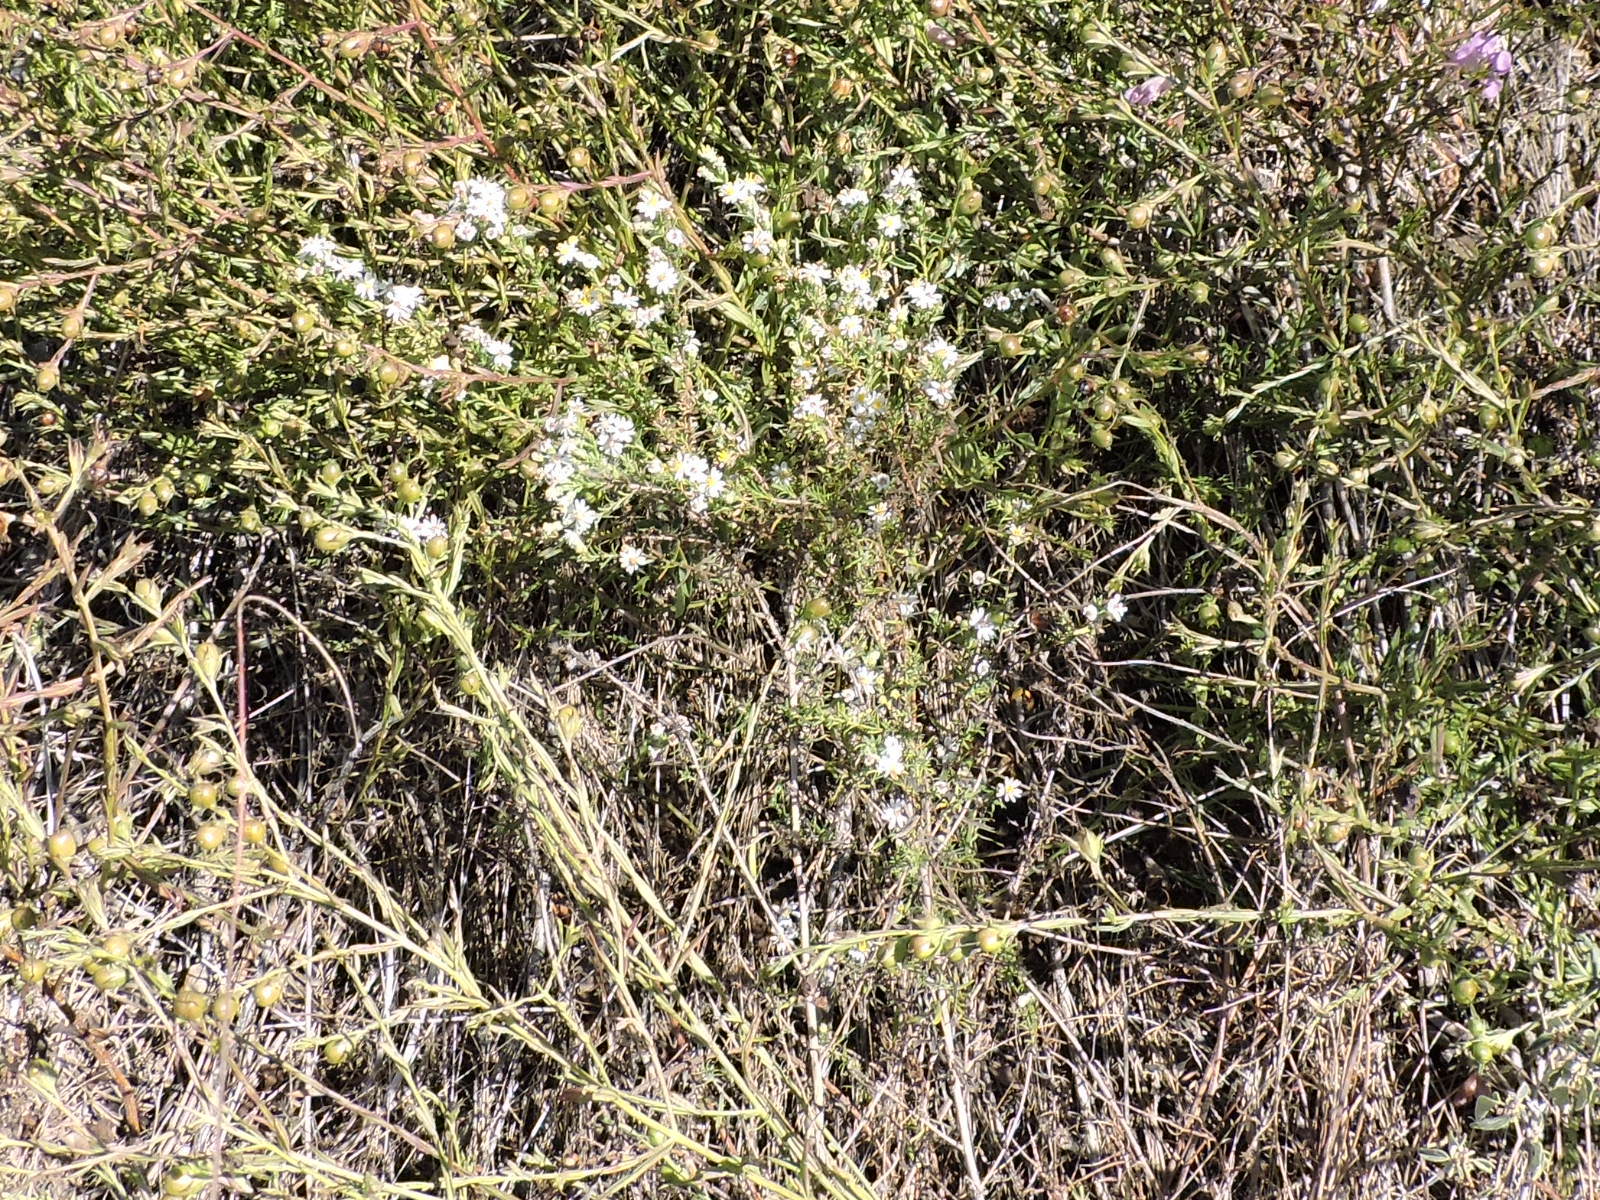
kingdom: Plantae
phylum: Tracheophyta
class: Magnoliopsida
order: Asterales
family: Asteraceae
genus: Symphyotrichum
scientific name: Symphyotrichum ericoides
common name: Heath aster
